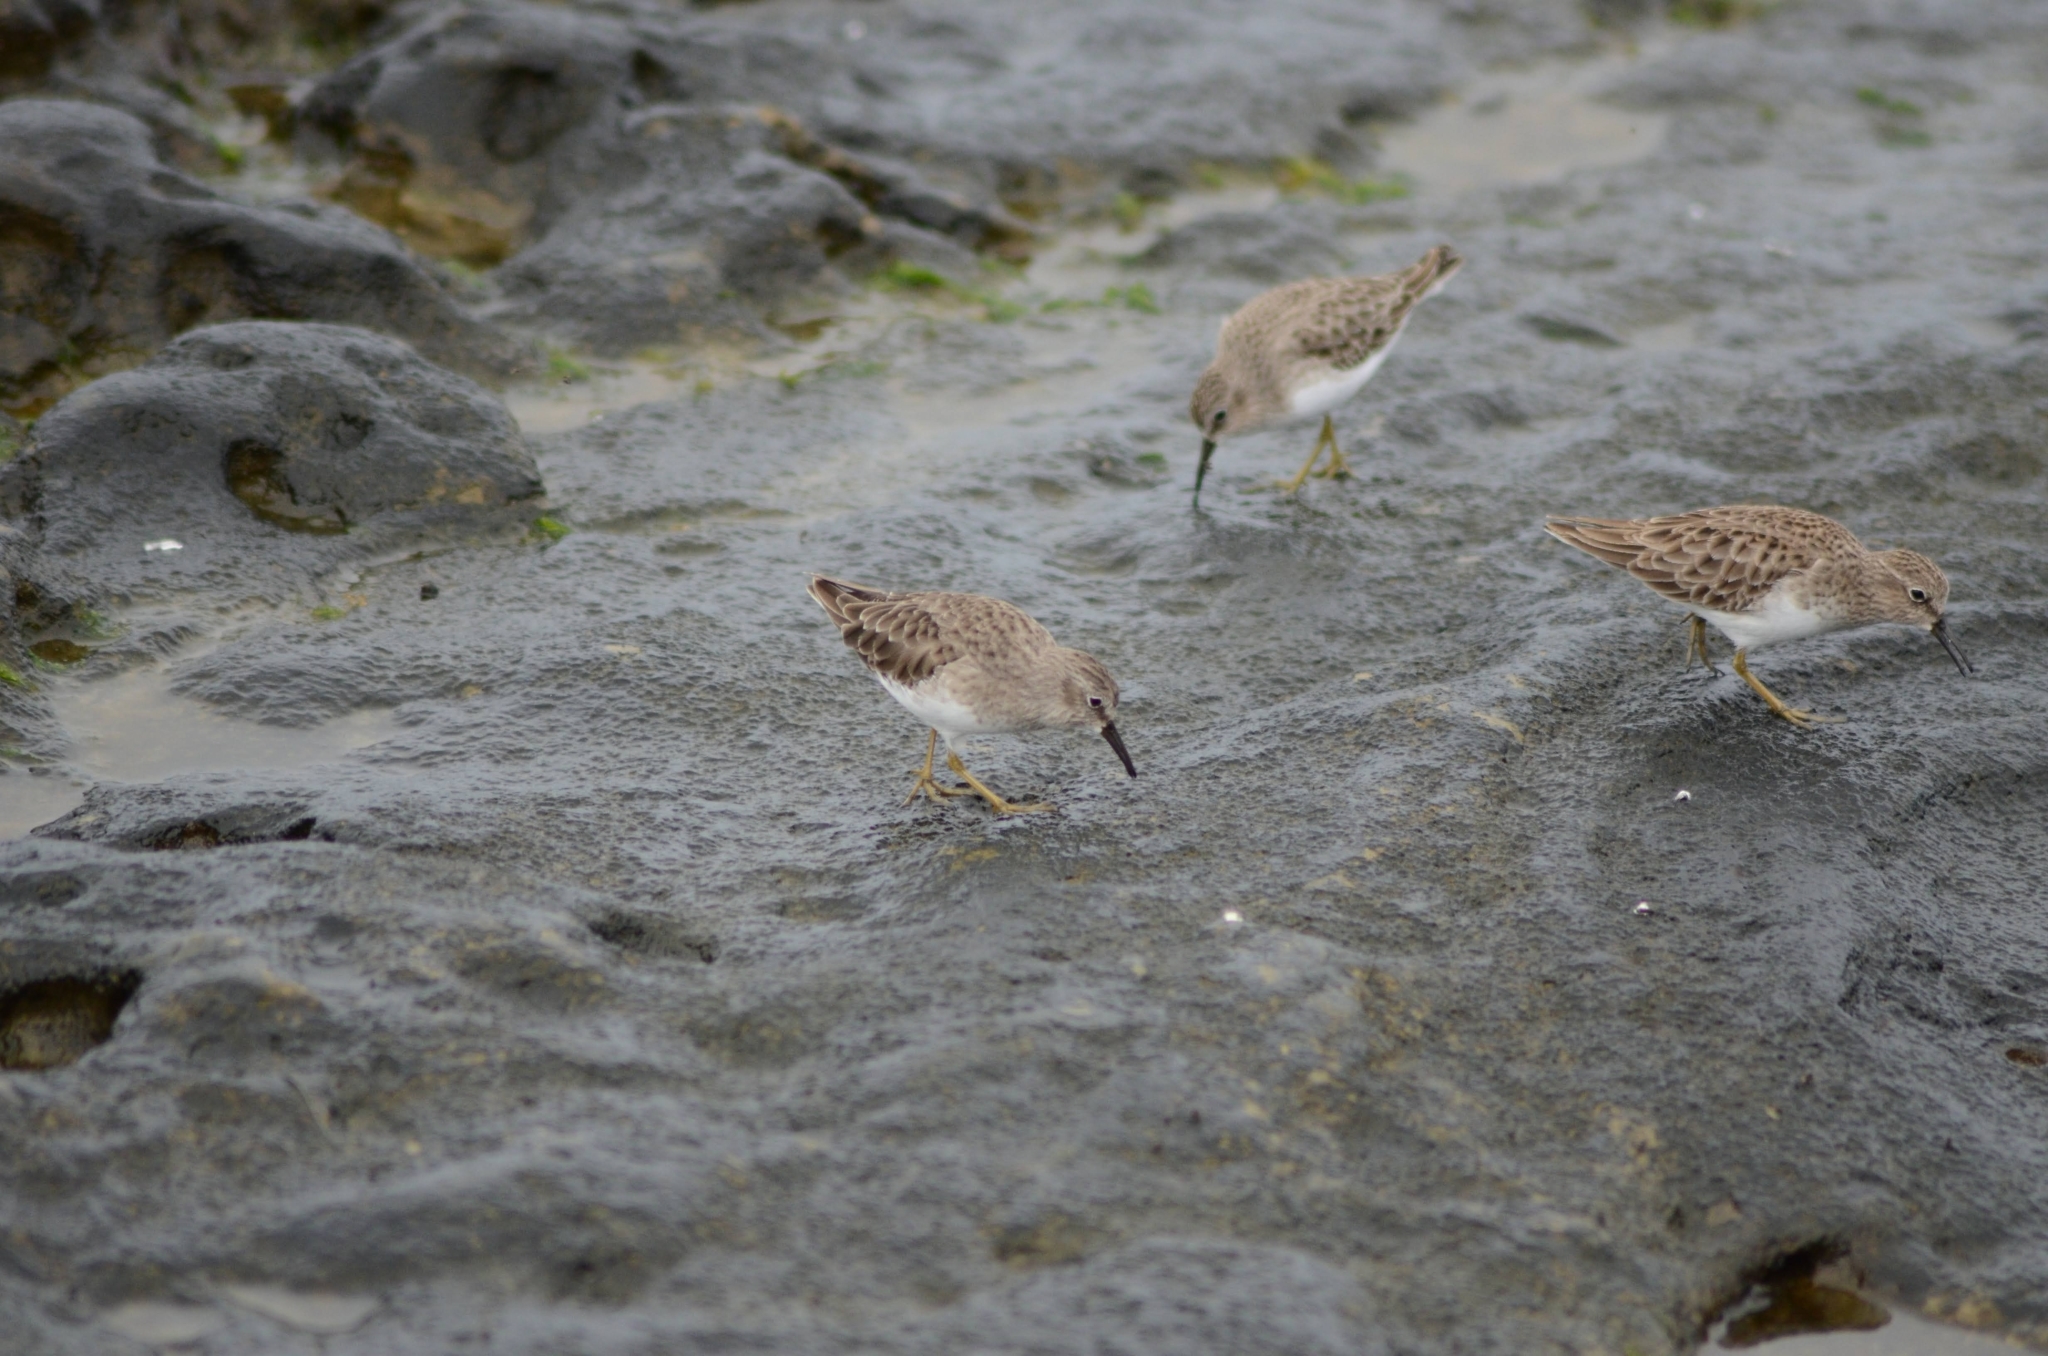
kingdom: Animalia
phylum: Chordata
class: Aves
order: Charadriiformes
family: Scolopacidae
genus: Calidris
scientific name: Calidris minutilla
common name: Least sandpiper
